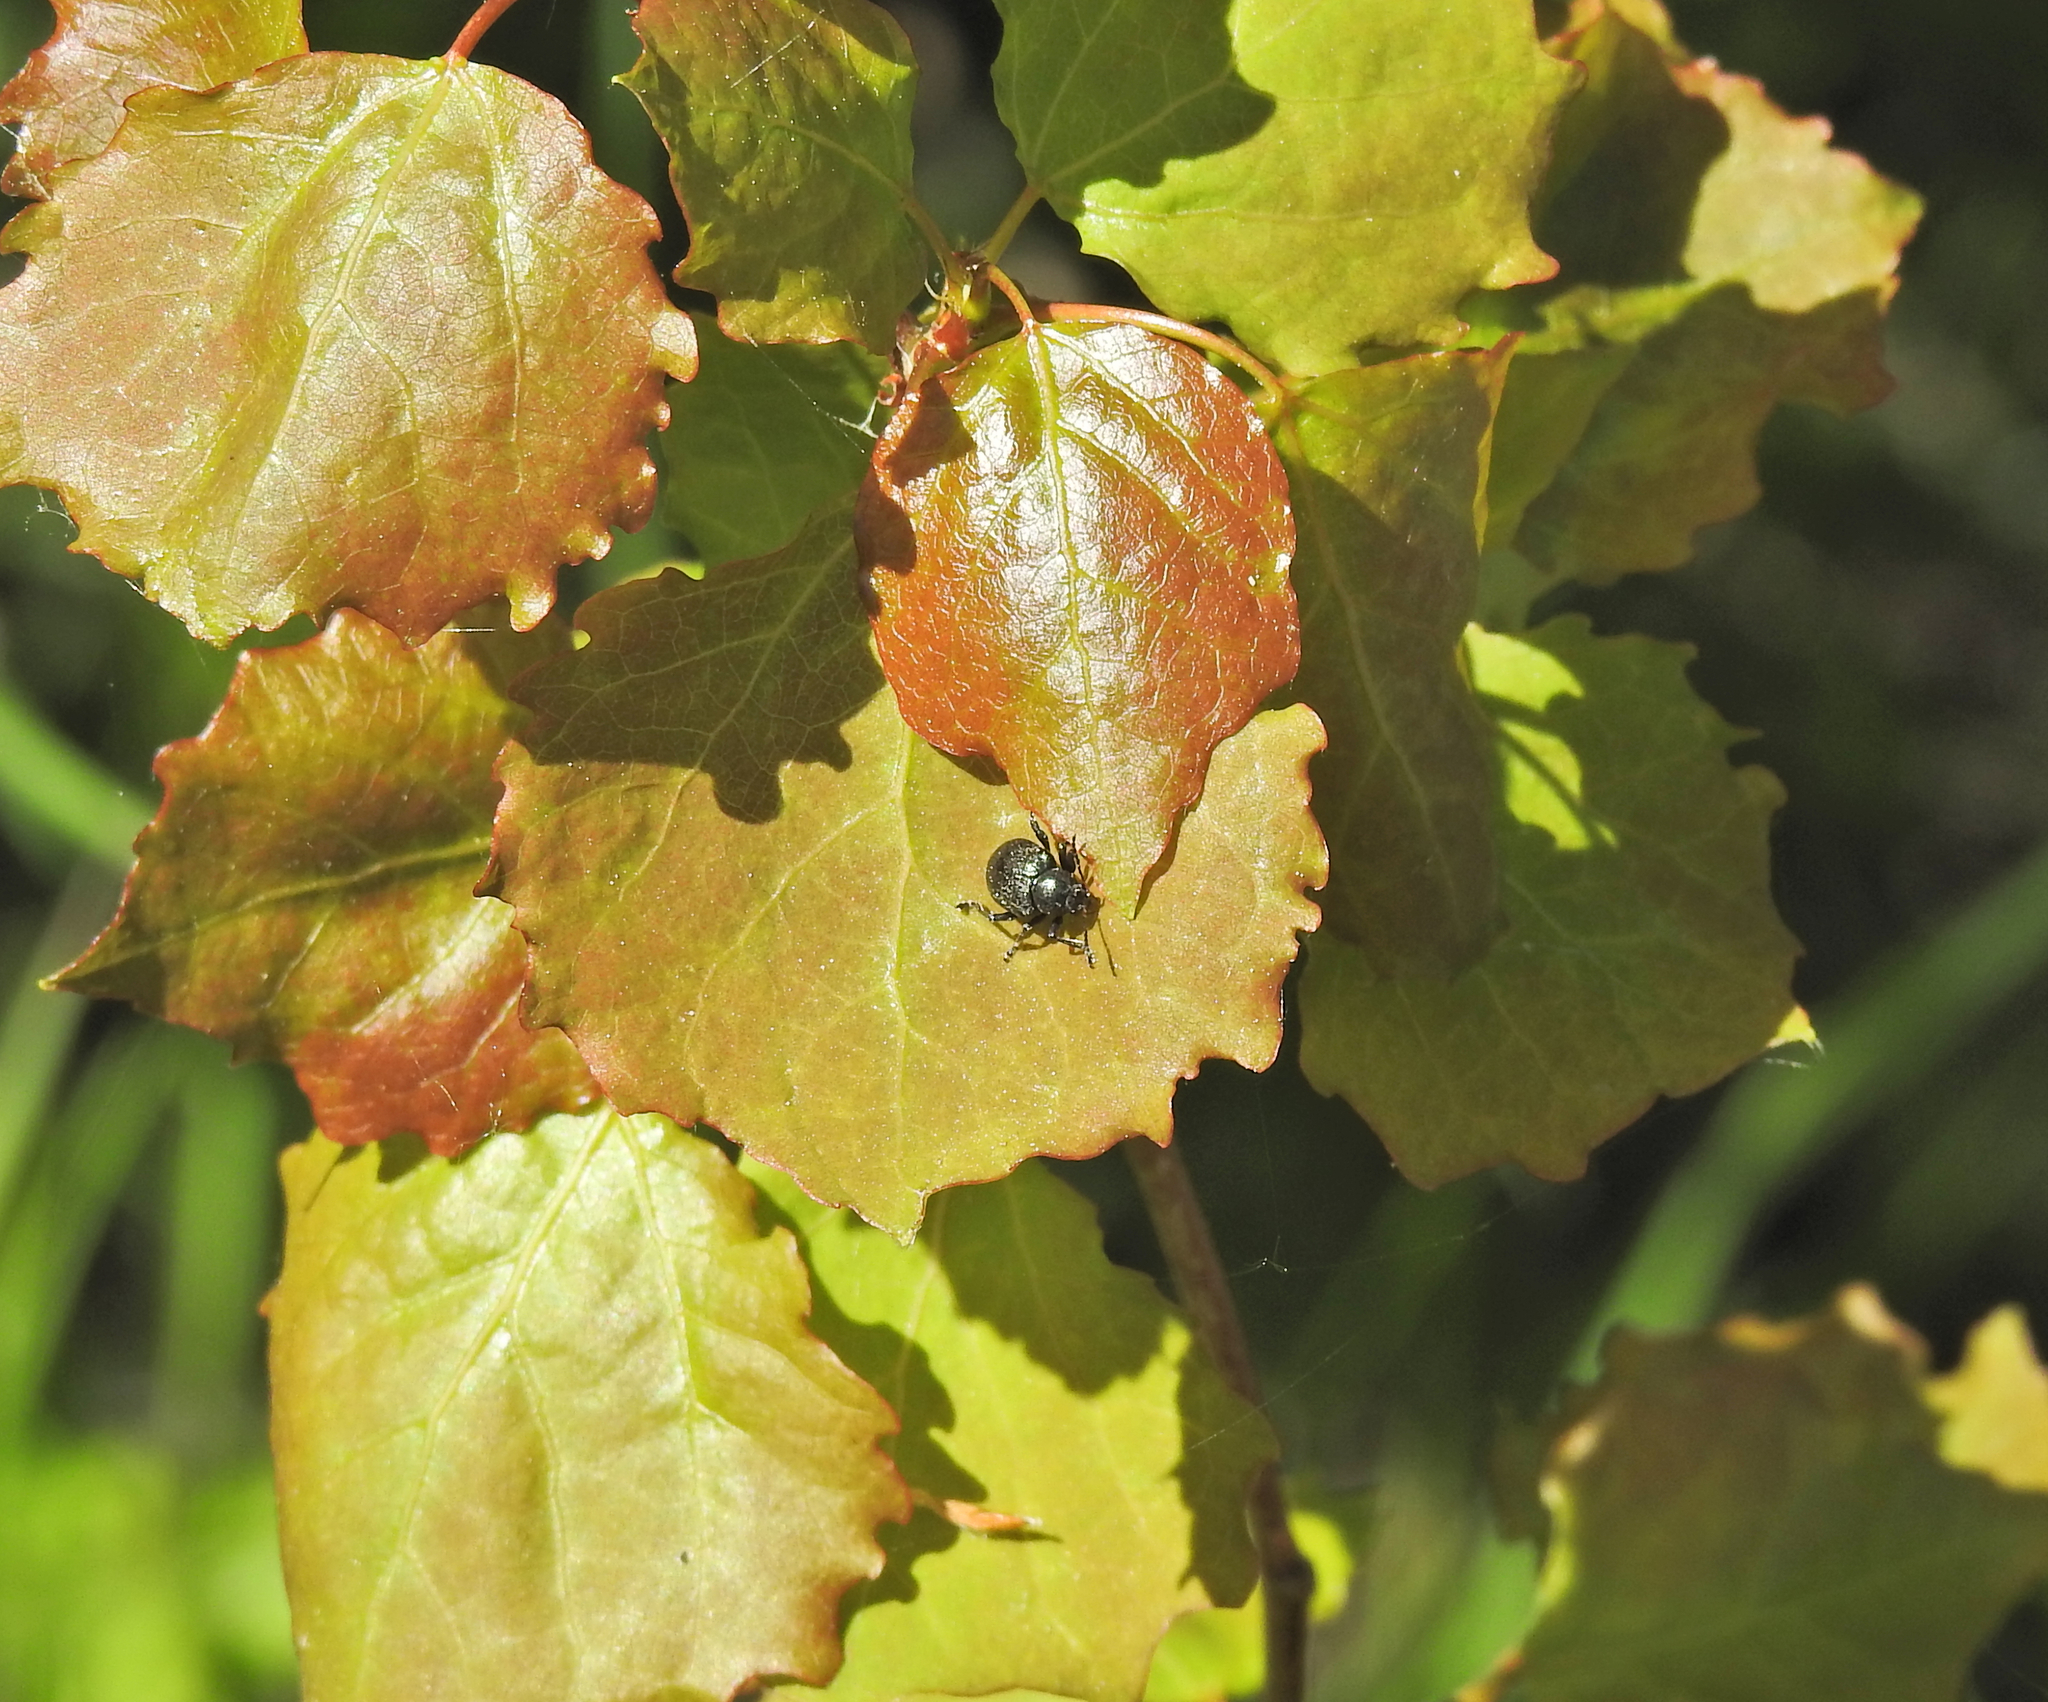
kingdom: Animalia
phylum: Arthropoda
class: Insecta
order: Coleoptera
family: Chrysomelidae
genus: Bromius
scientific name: Bromius obscurus
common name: Western grape rootworm
